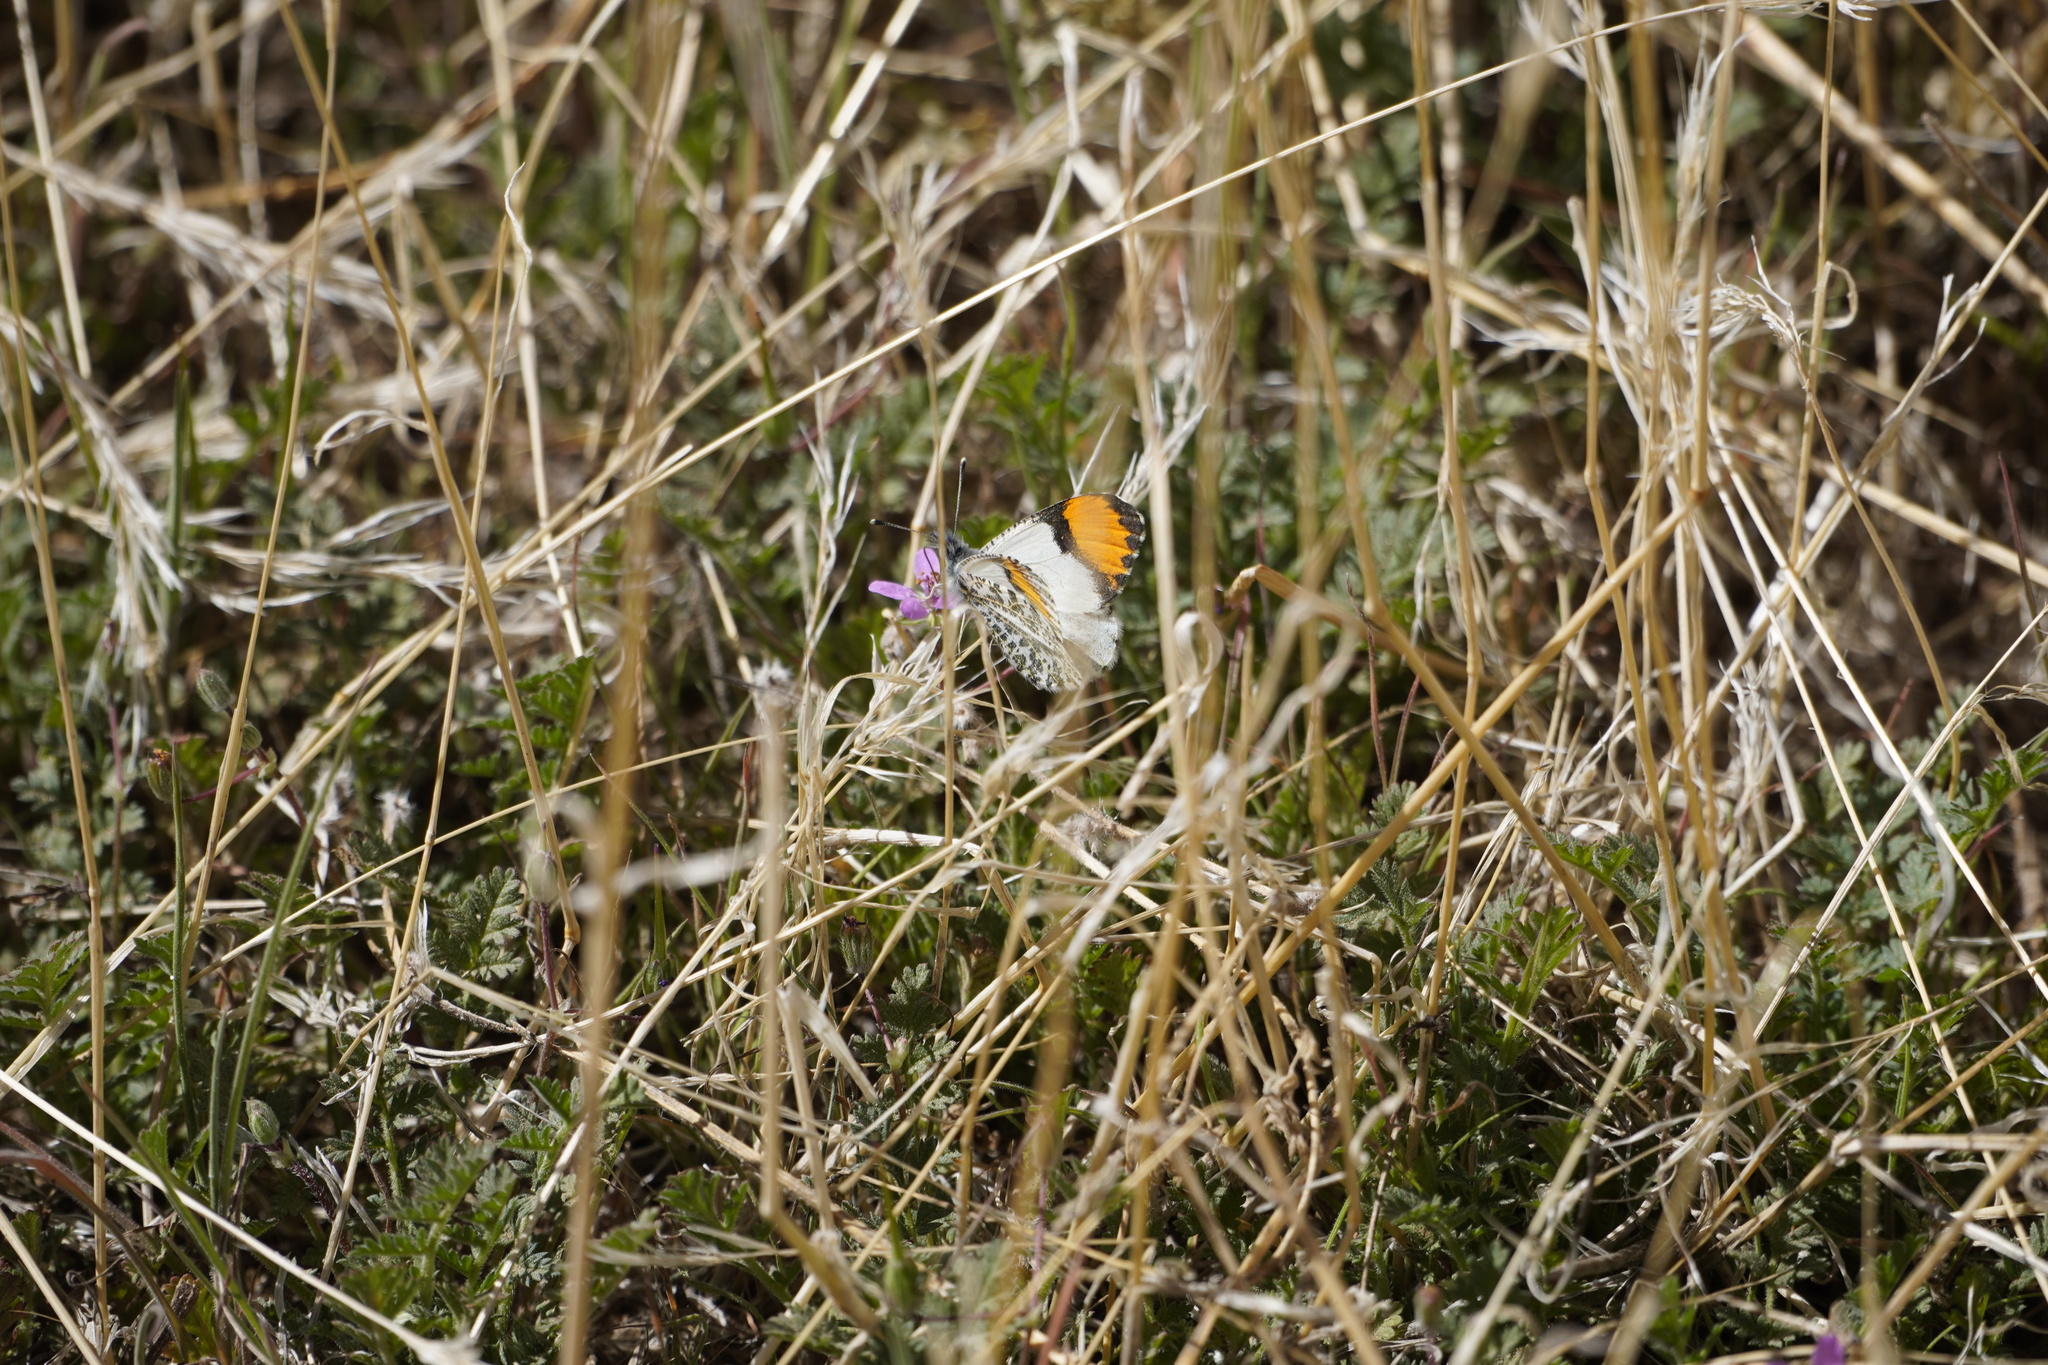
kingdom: Animalia
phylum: Arthropoda
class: Insecta
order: Lepidoptera
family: Pieridae
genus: Anthocharis
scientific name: Anthocharis thoosa
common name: Southwestern orangetip
